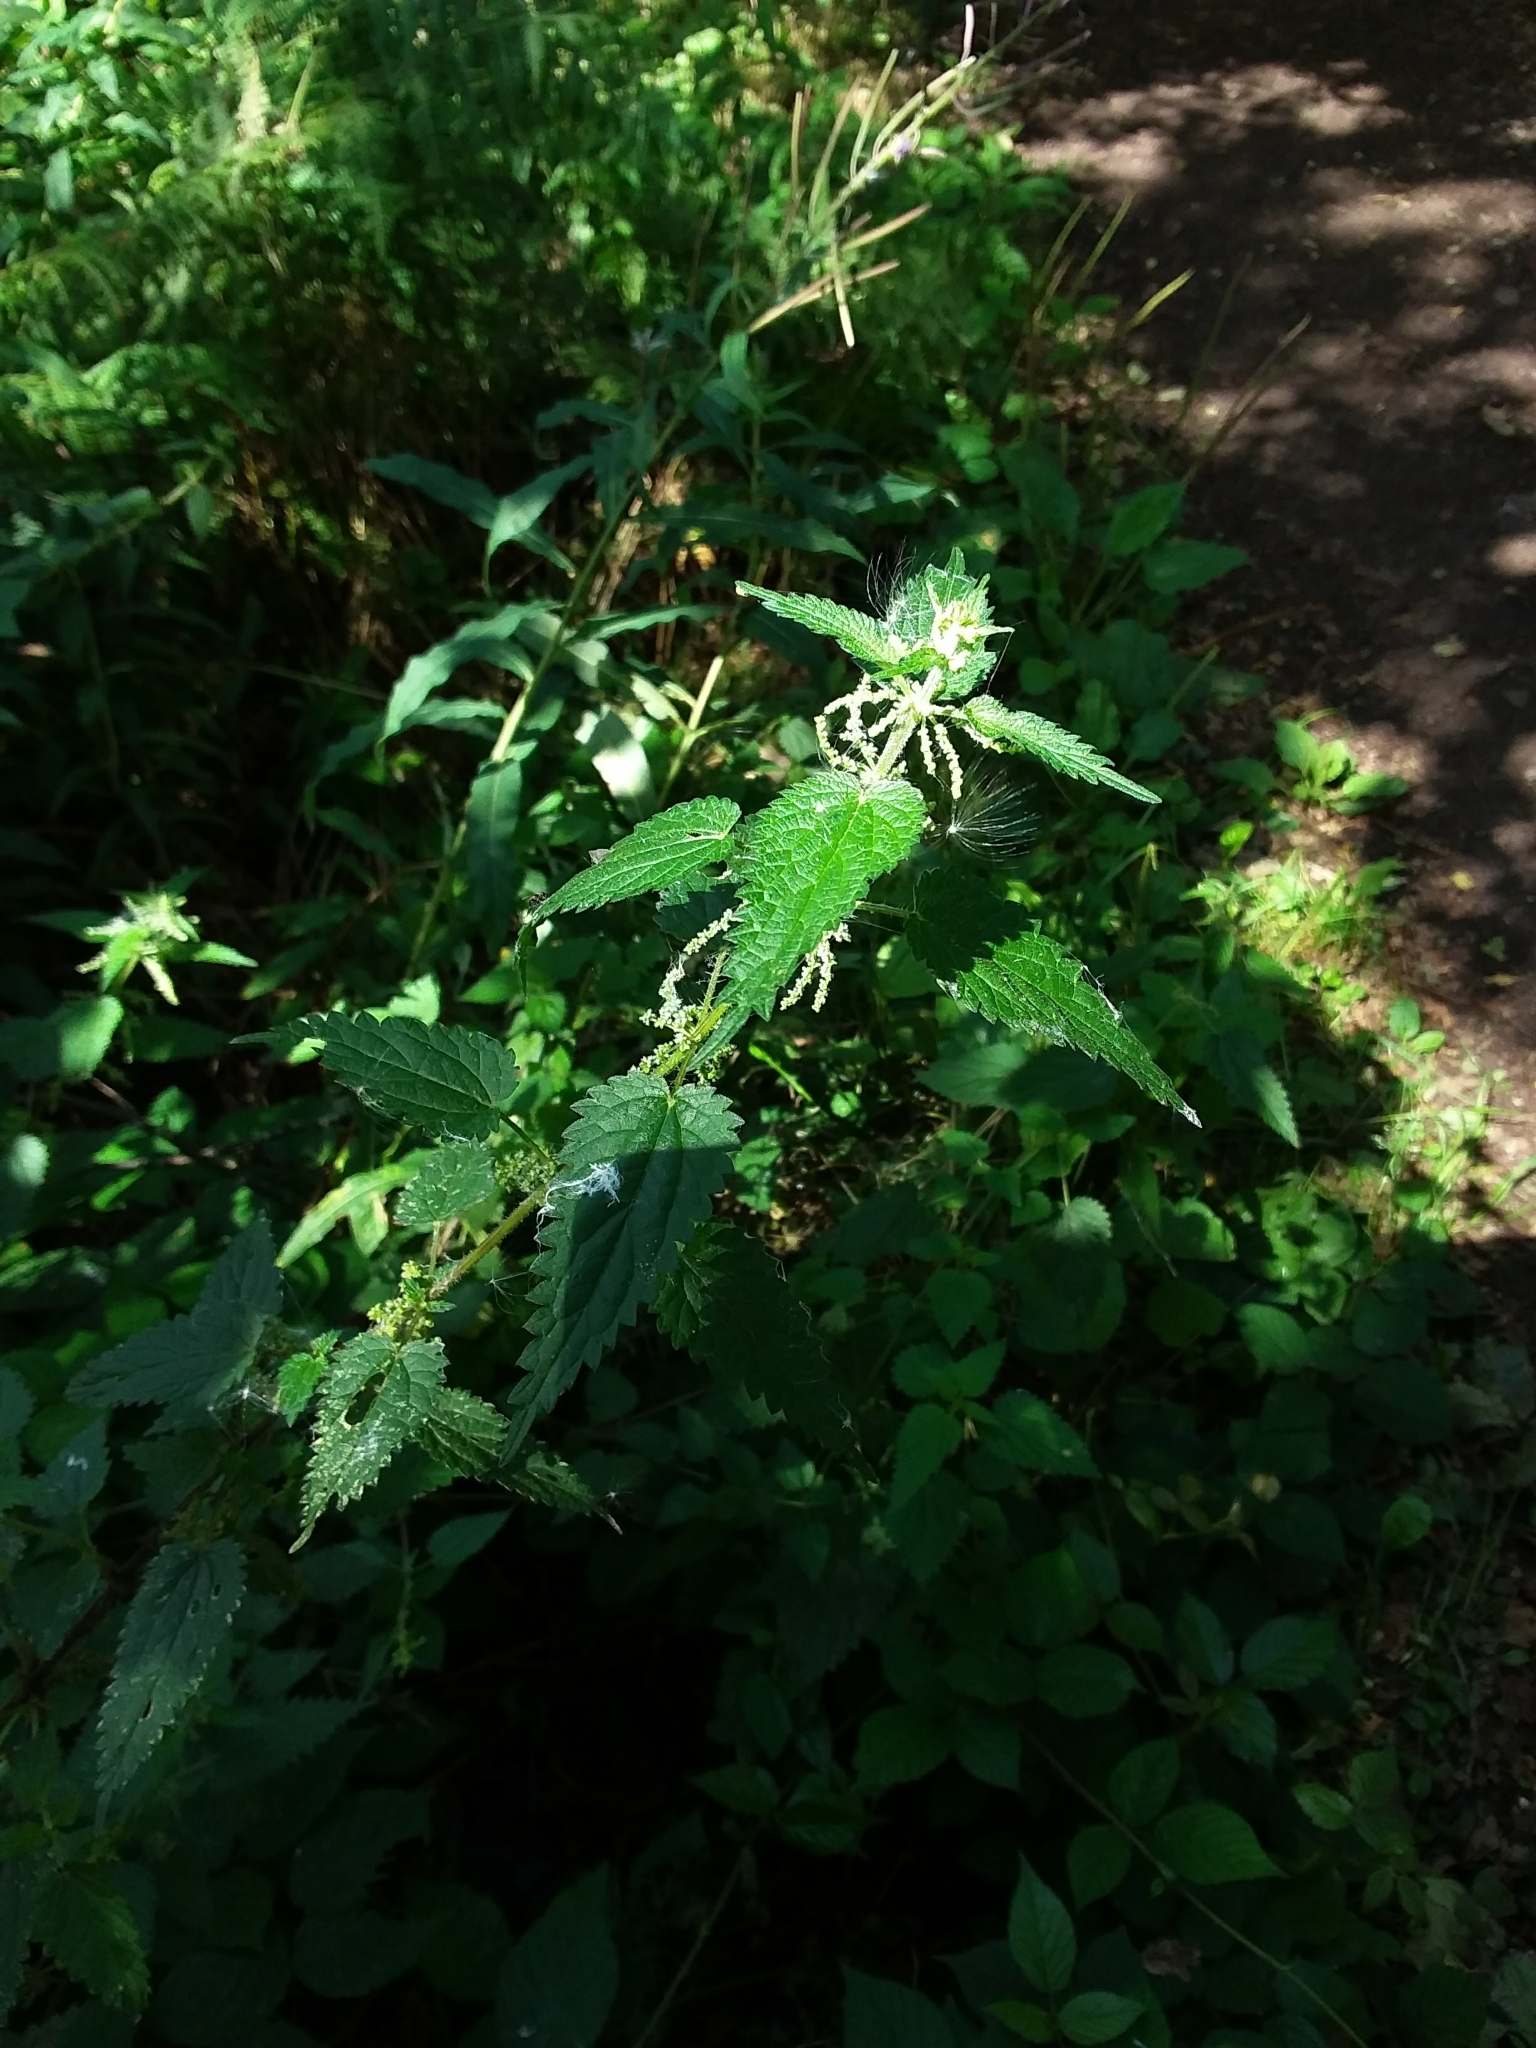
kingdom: Plantae
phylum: Tracheophyta
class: Magnoliopsida
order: Rosales
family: Urticaceae
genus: Urtica
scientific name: Urtica dioica
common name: Common nettle
